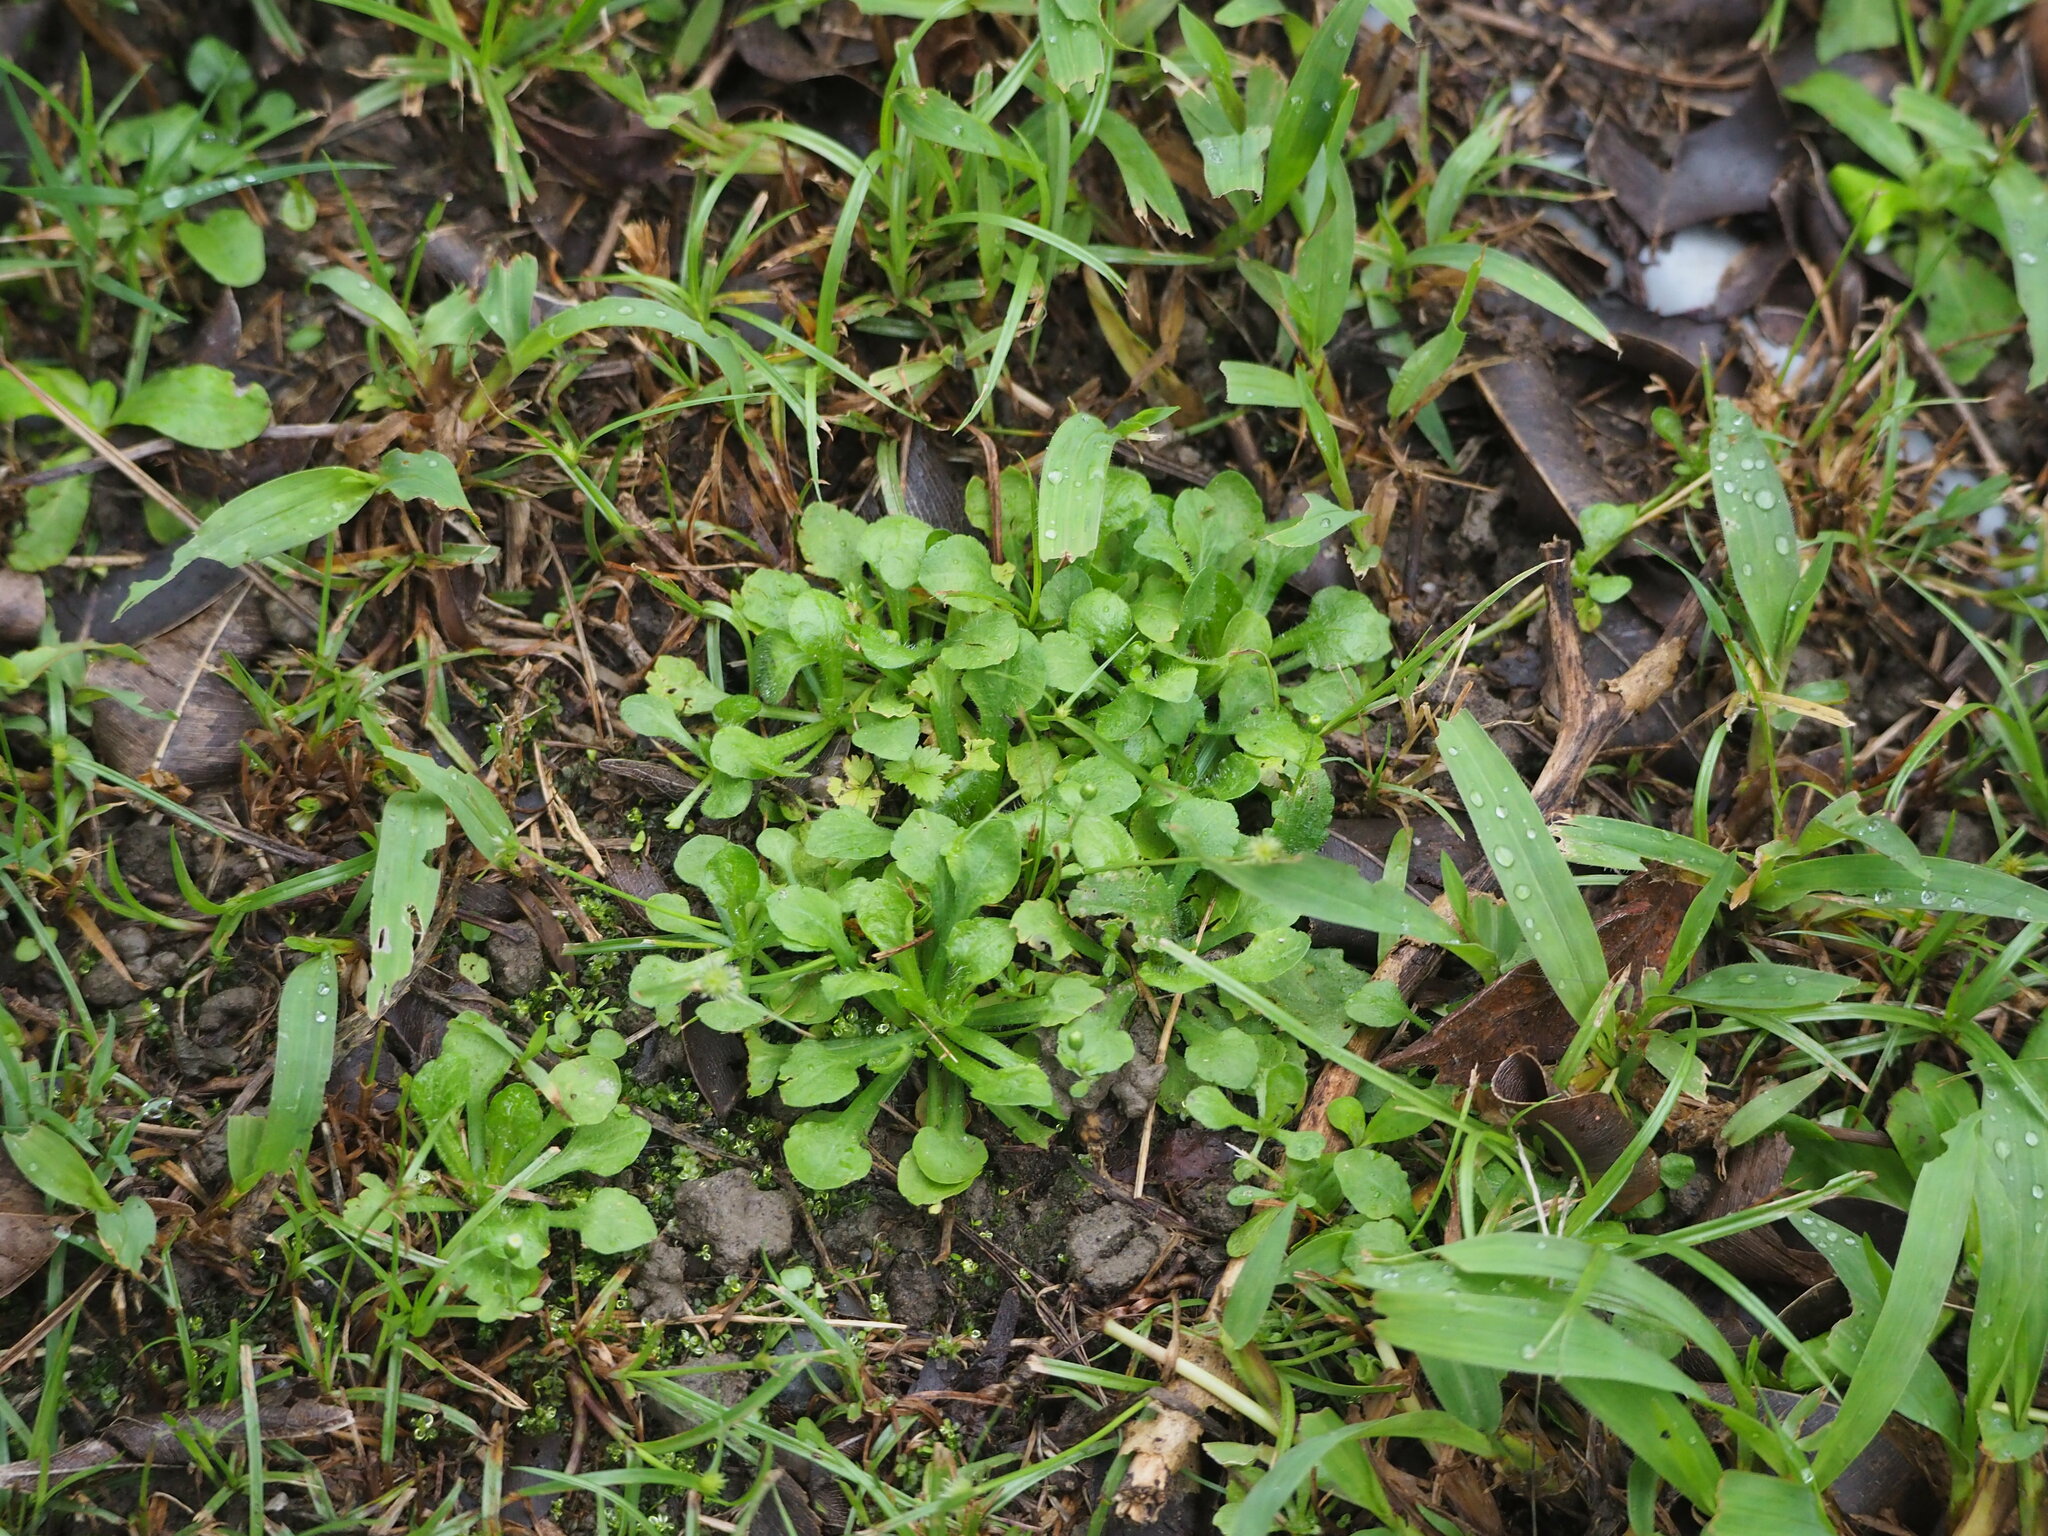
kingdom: Plantae
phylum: Tracheophyta
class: Magnoliopsida
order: Asterales
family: Asteraceae
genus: Erigeron
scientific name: Erigeron bellioides
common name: Bellorita
